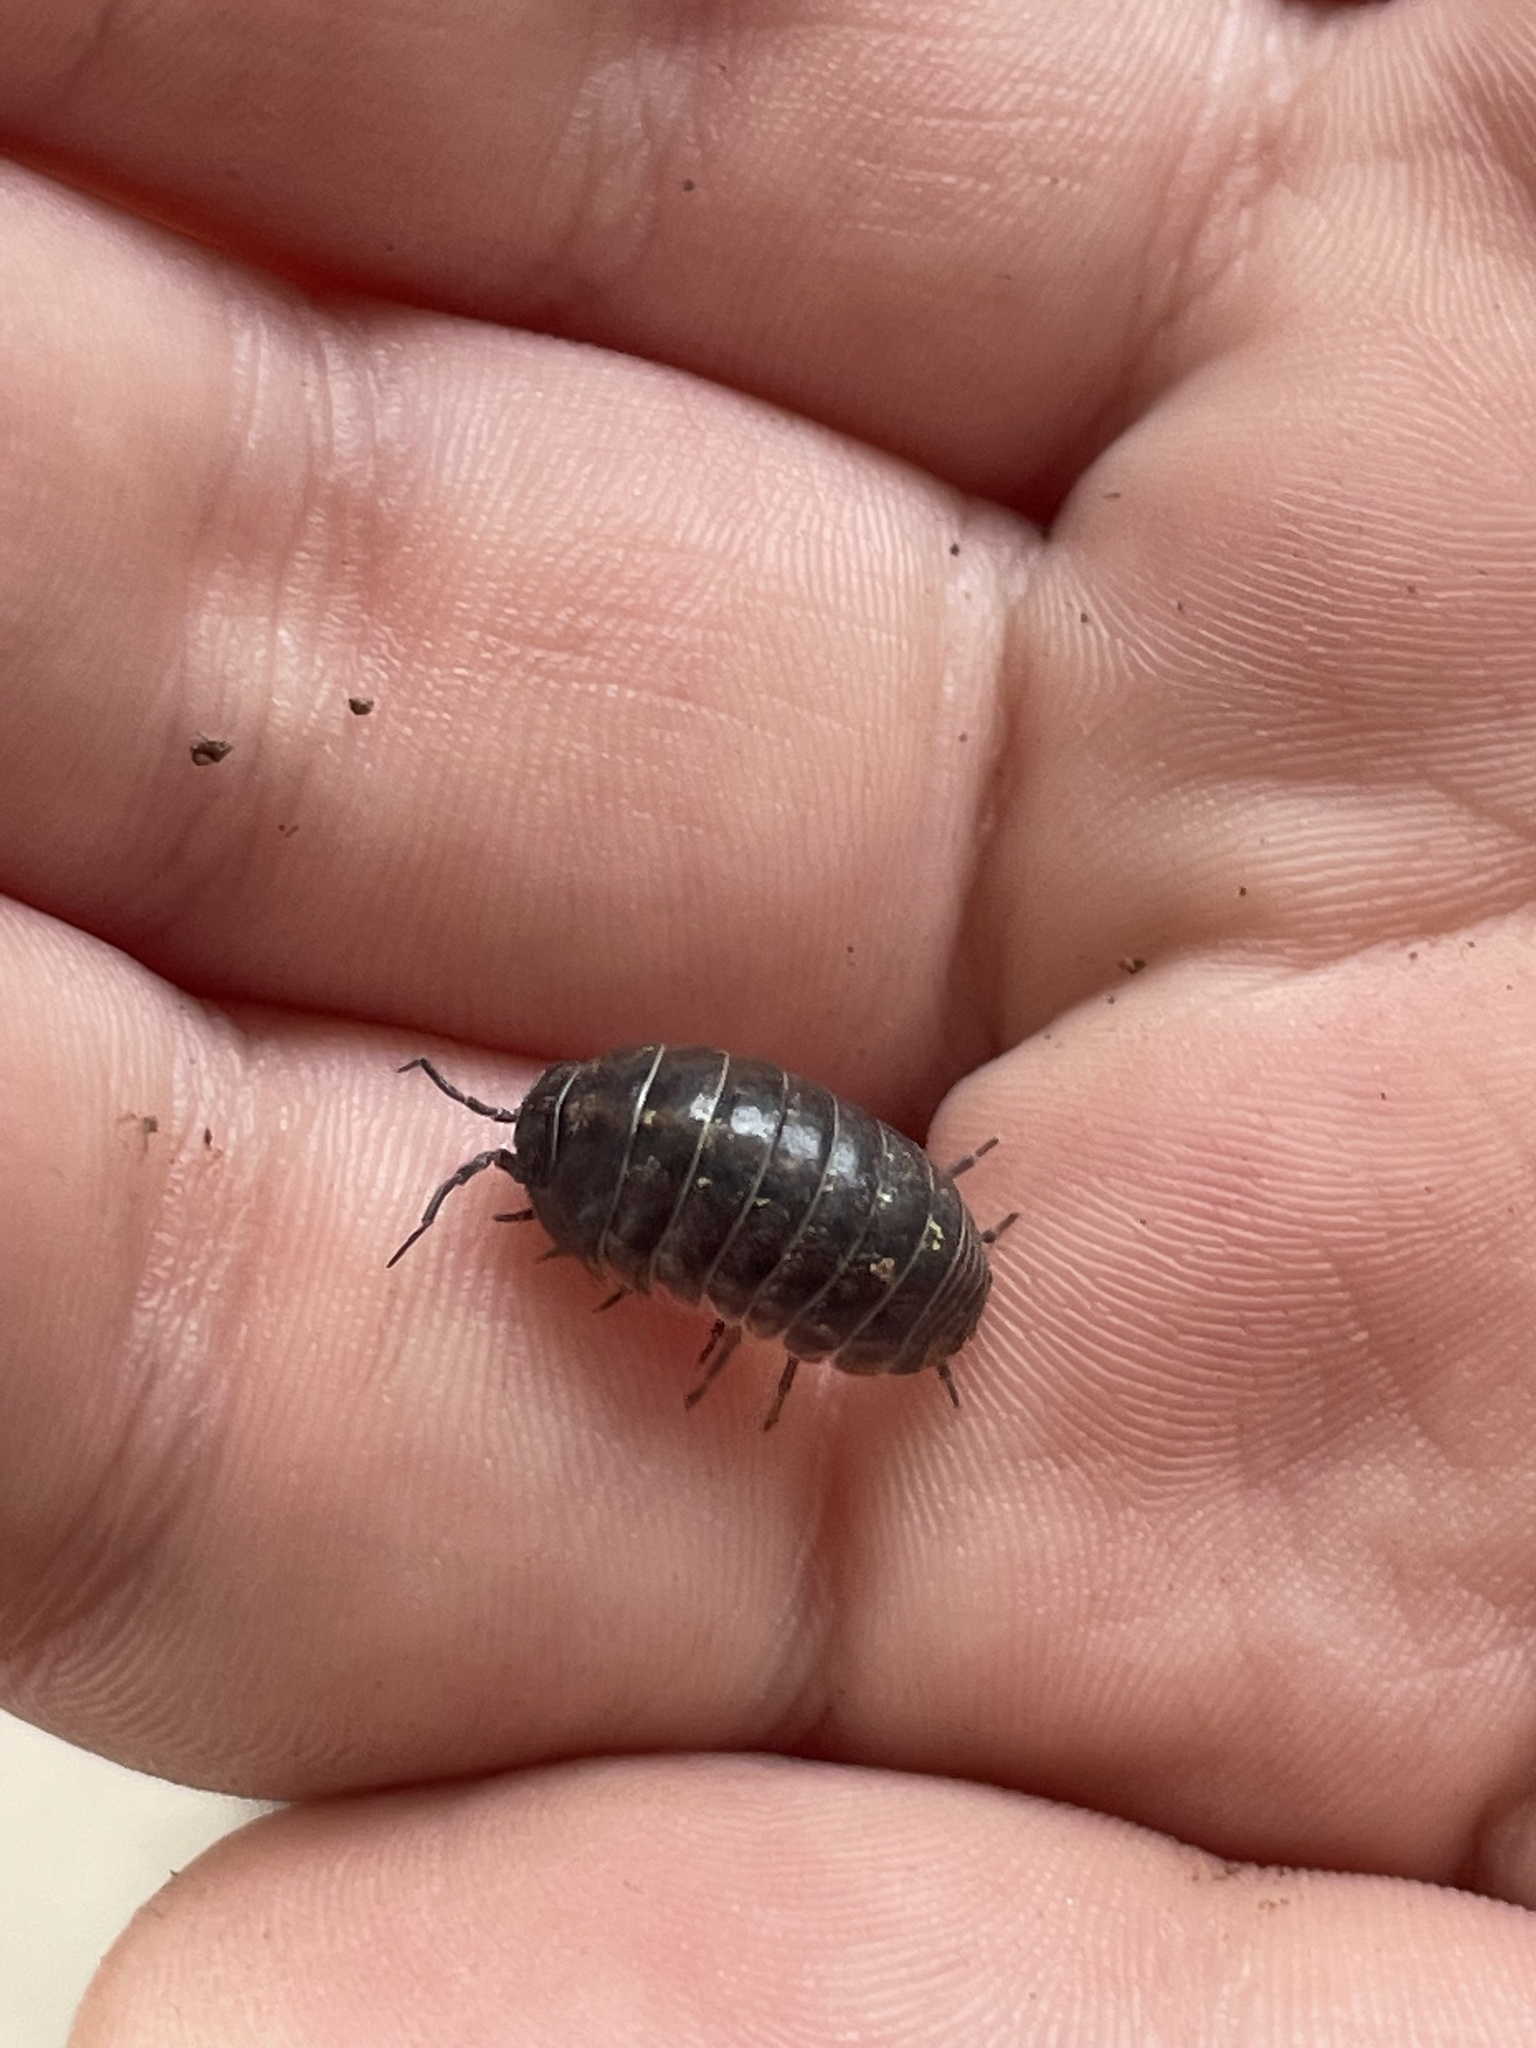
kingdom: Animalia
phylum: Arthropoda
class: Malacostraca
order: Isopoda
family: Armadillidiidae
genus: Armadillidium
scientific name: Armadillidium vulgare
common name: Common pill woodlouse
